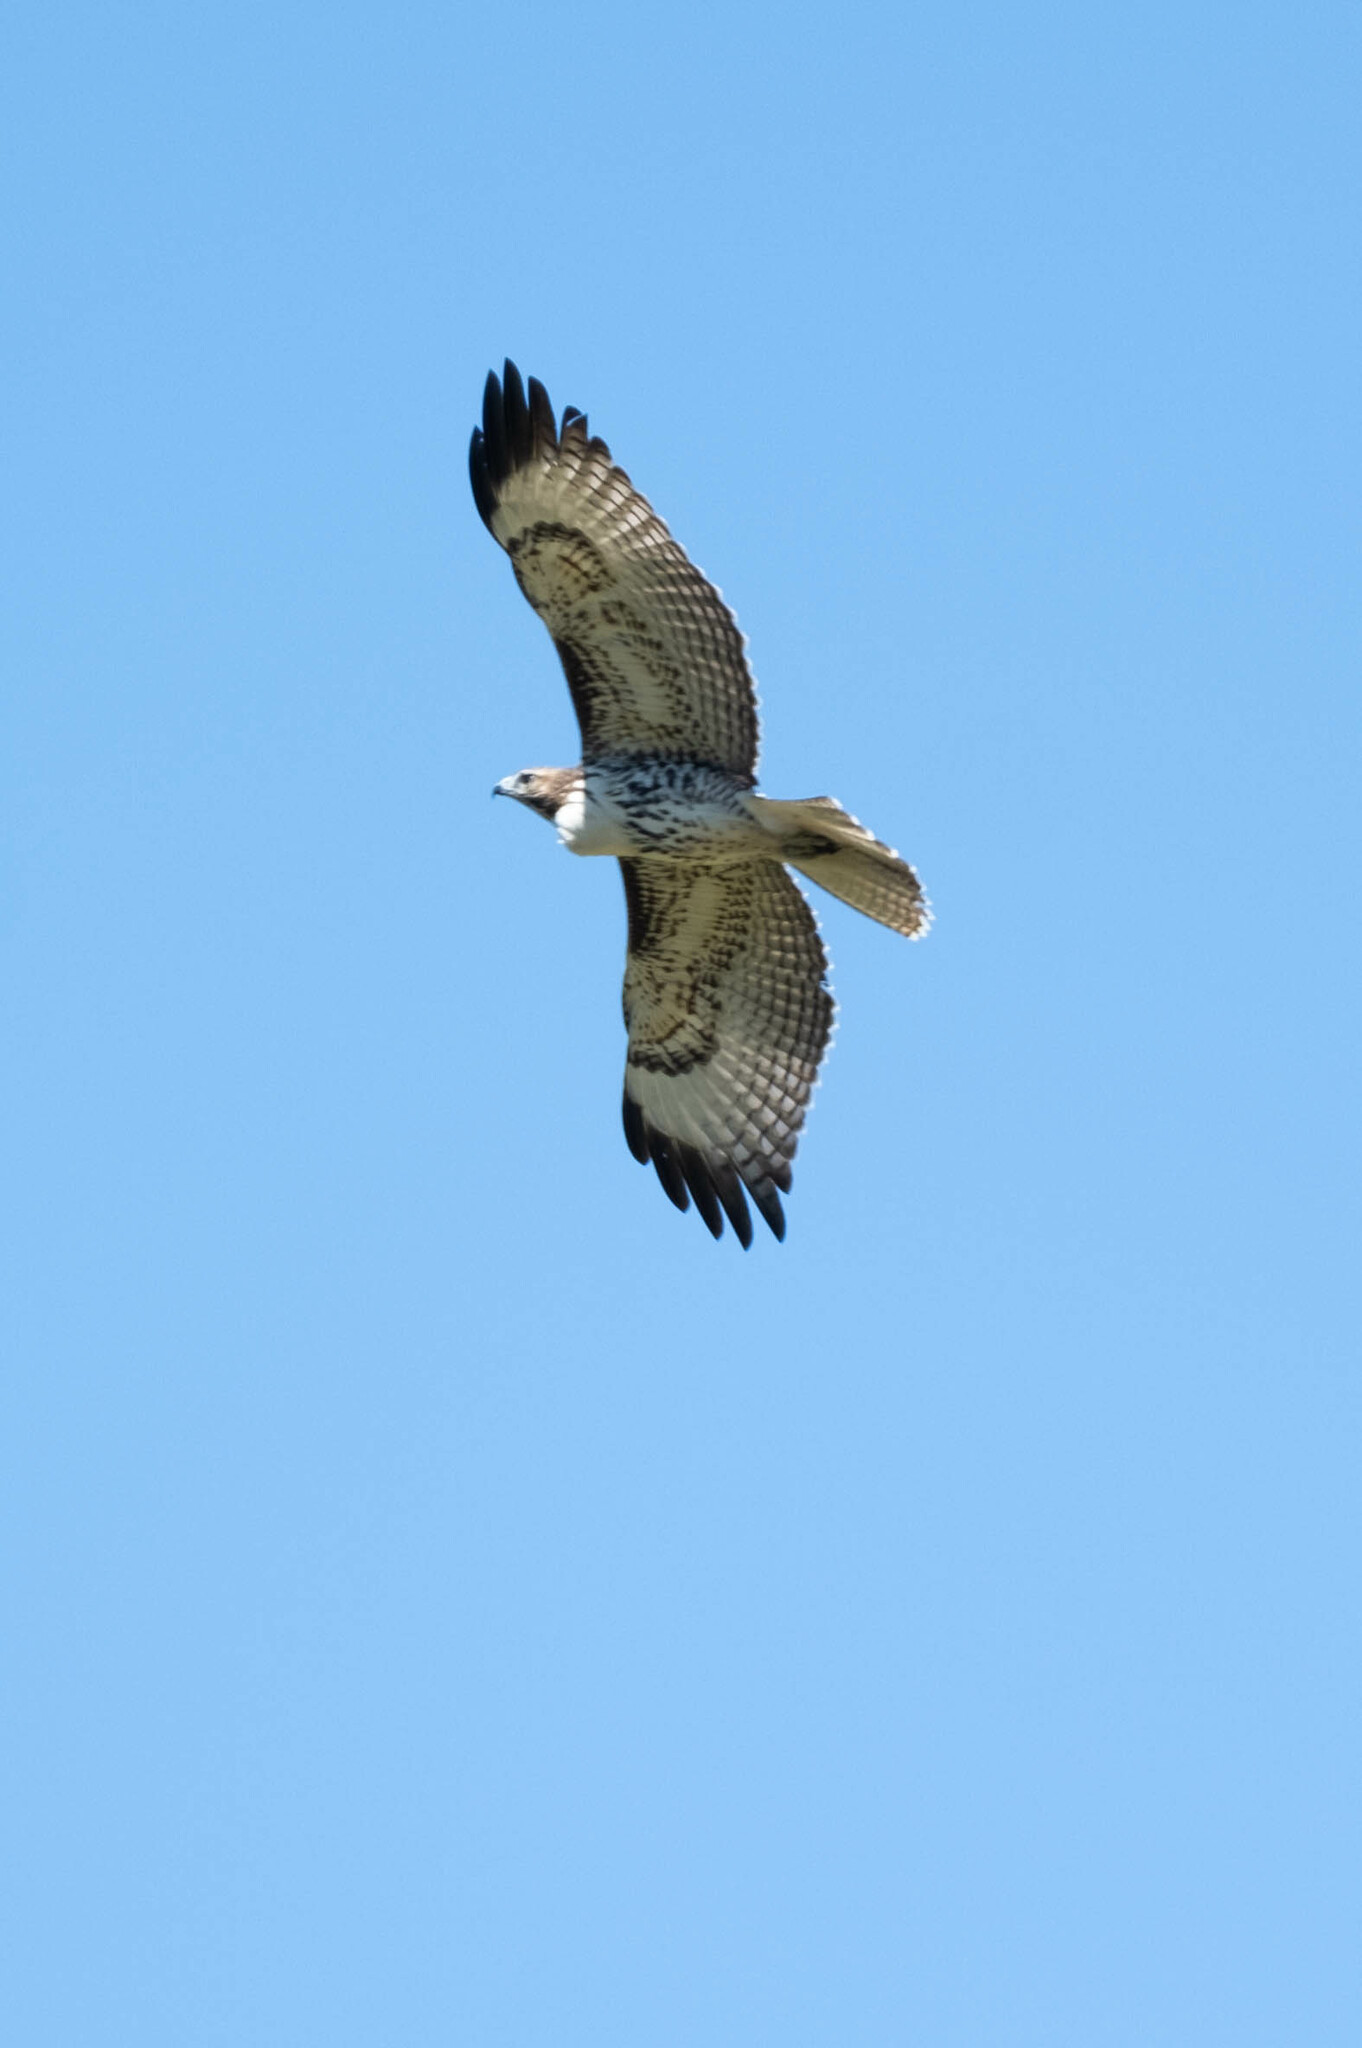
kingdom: Animalia
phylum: Chordata
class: Aves
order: Accipitriformes
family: Accipitridae
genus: Buteo
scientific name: Buteo jamaicensis
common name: Red-tailed hawk
